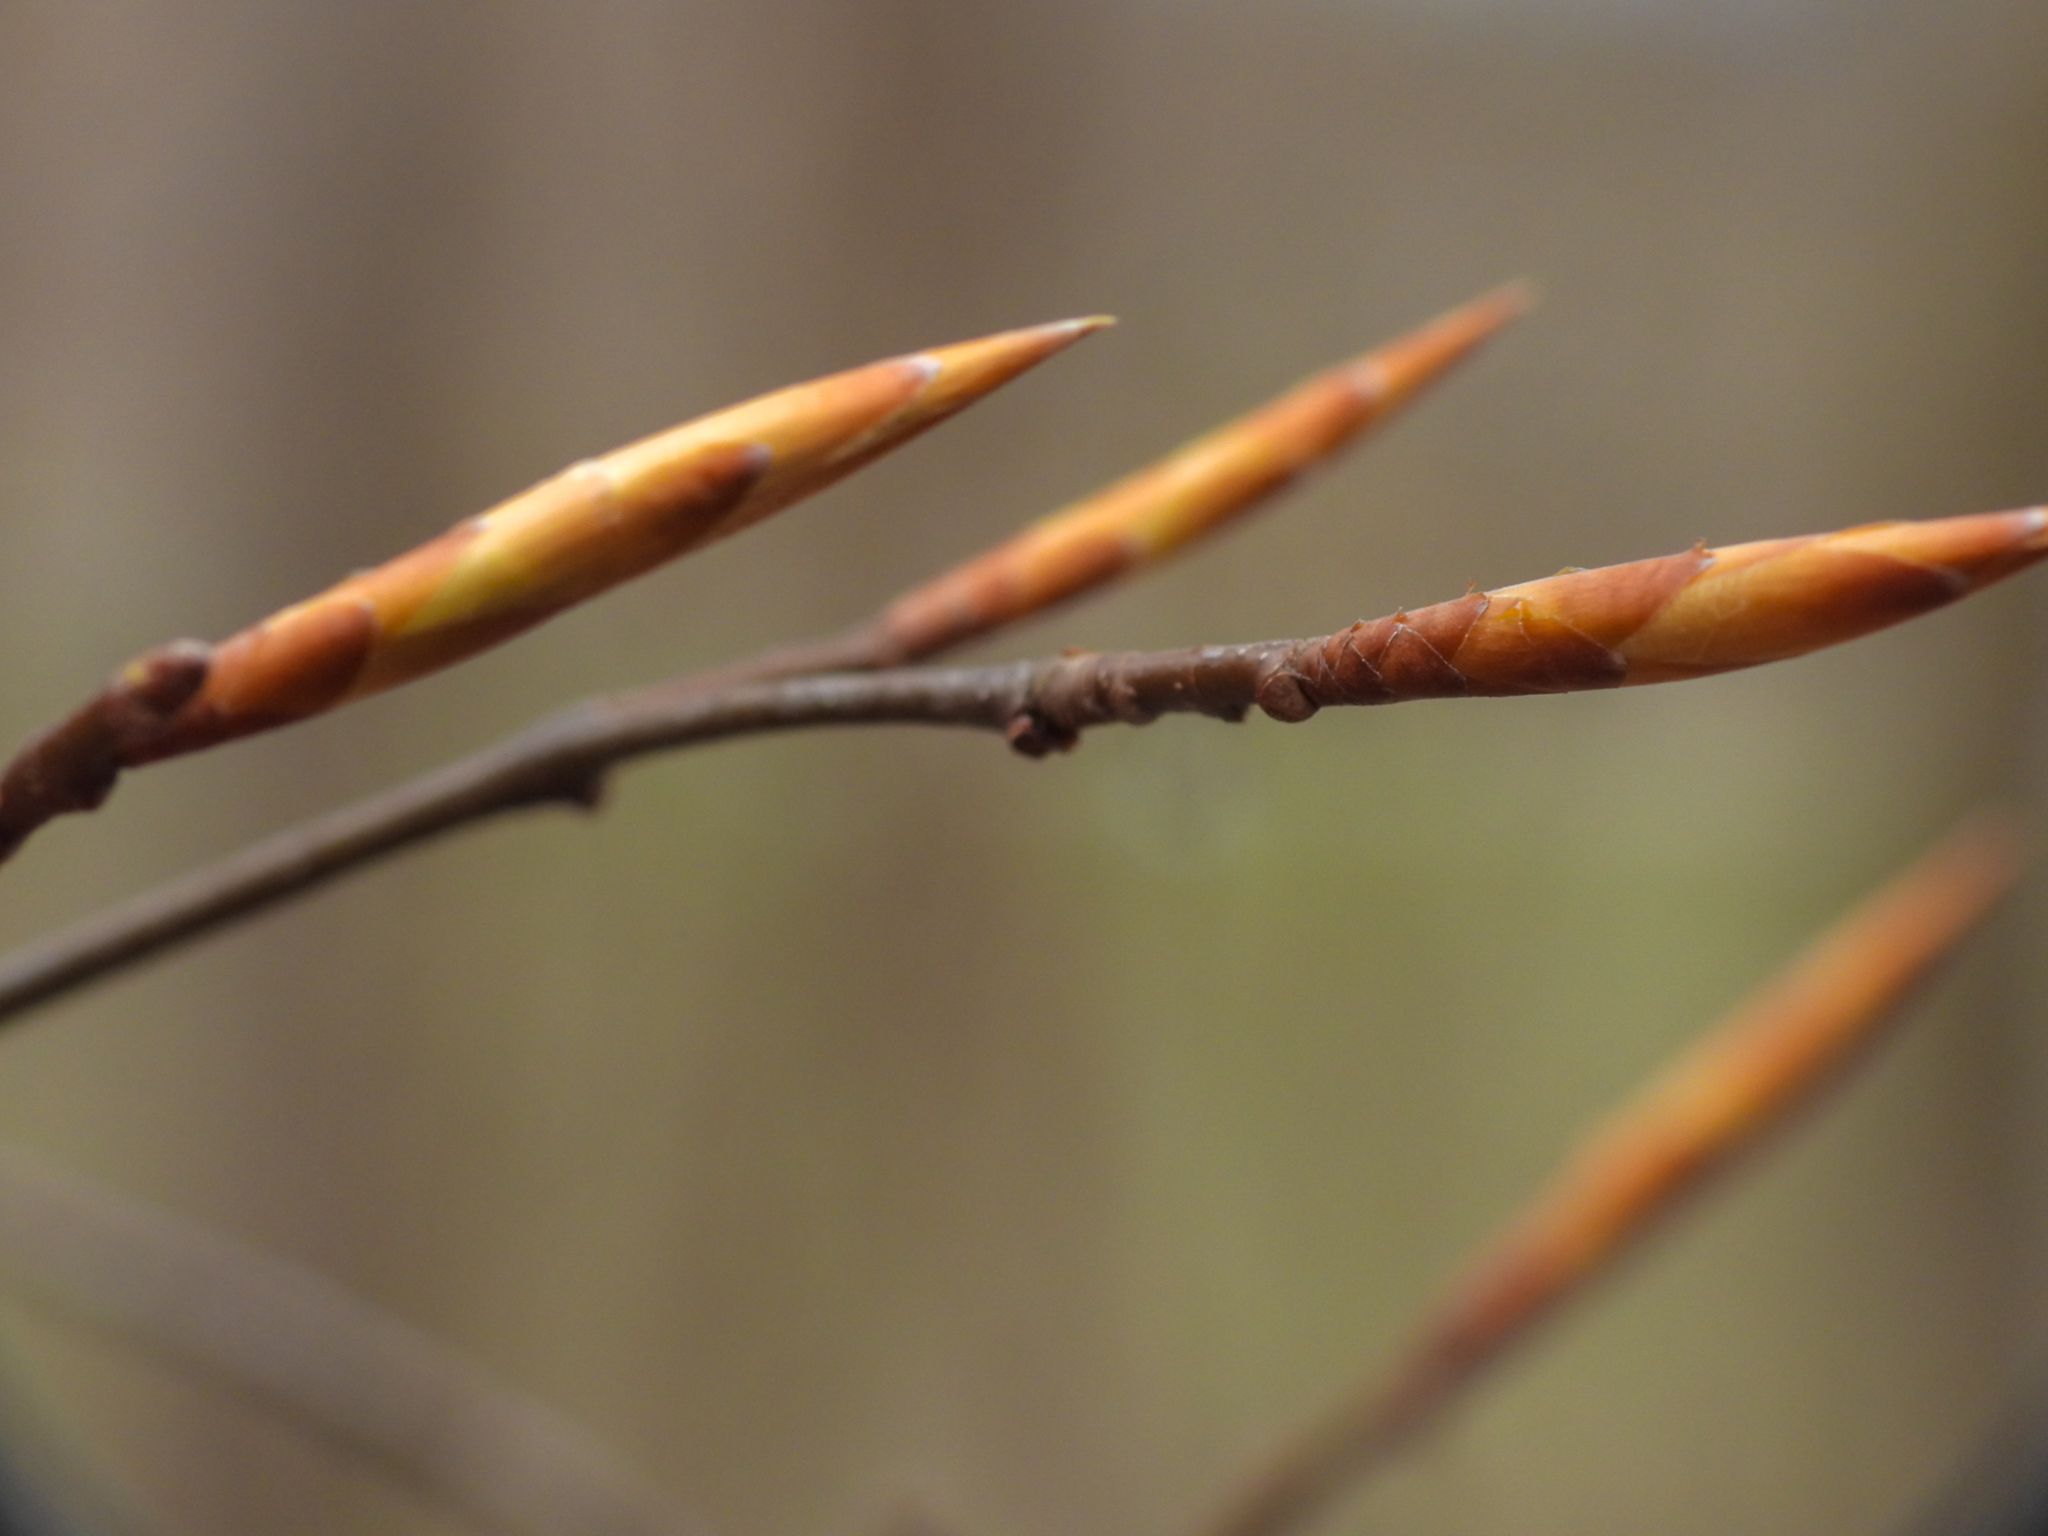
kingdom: Plantae
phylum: Tracheophyta
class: Magnoliopsida
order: Fagales
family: Fagaceae
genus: Fagus
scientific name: Fagus grandifolia
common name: American beech
